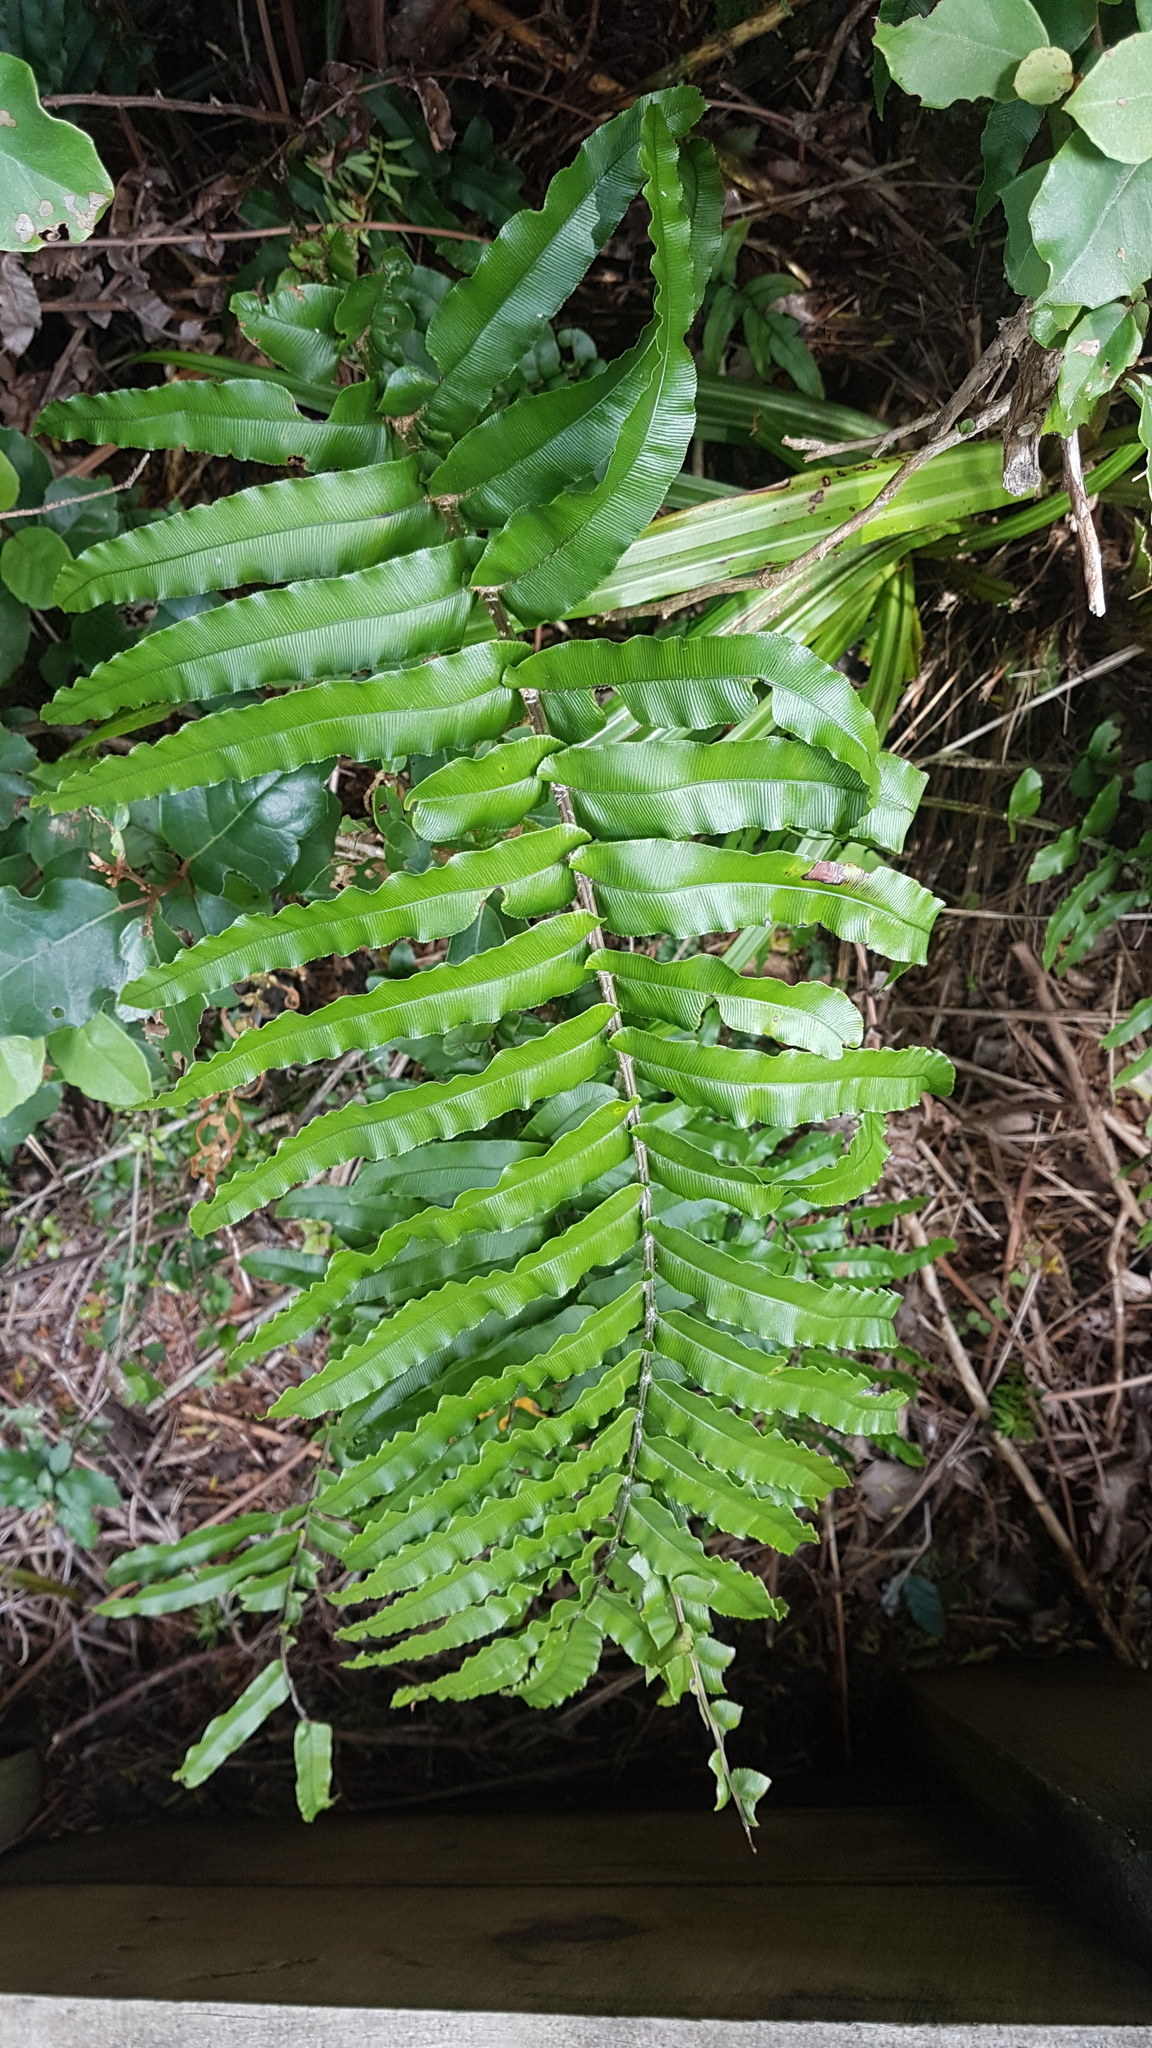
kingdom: Plantae
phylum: Tracheophyta
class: Polypodiopsida
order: Polypodiales
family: Blechnaceae
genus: Parablechnum
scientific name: Parablechnum novae-zelandiae
